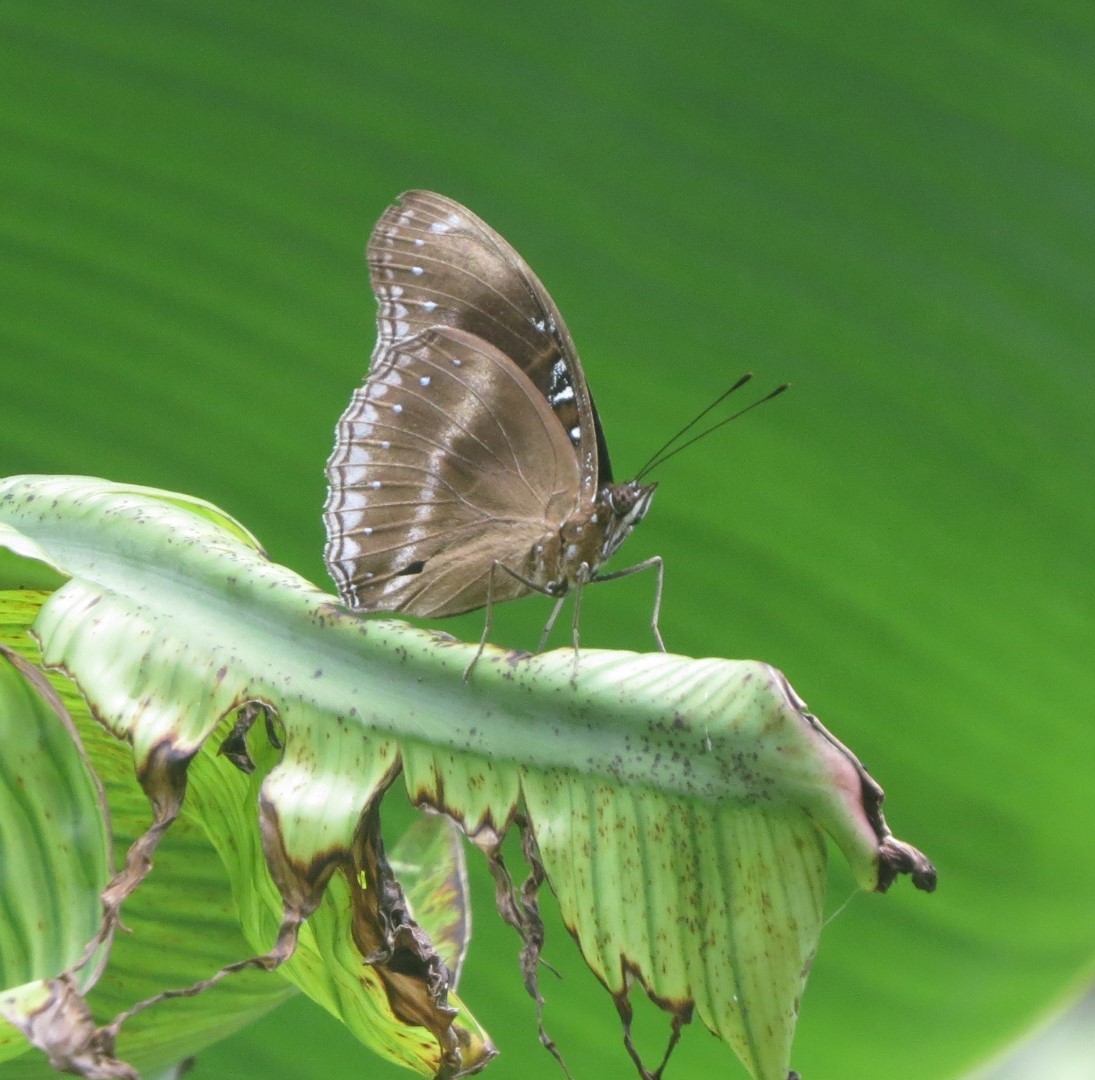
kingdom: Animalia
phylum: Arthropoda
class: Insecta
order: Lepidoptera
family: Nymphalidae
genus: Hypolimnas
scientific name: Hypolimnas bolina
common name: Great eggfly
